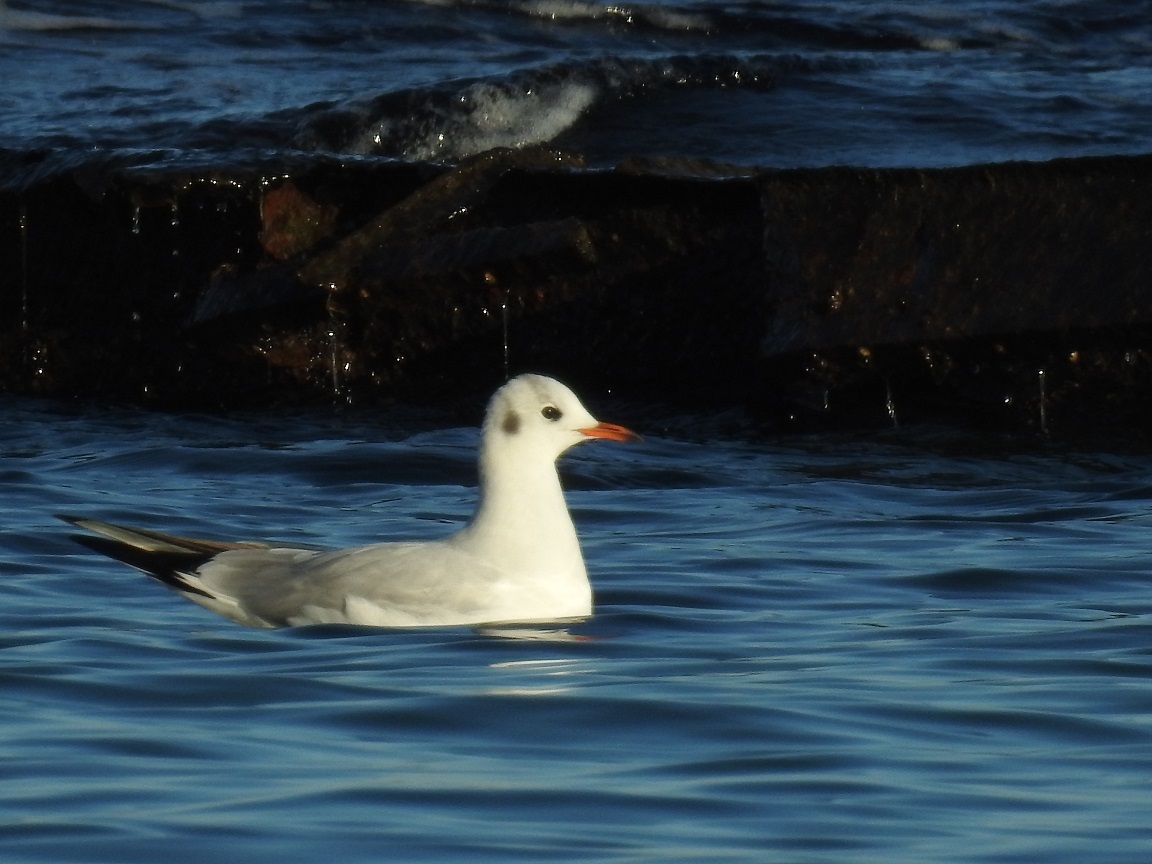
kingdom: Animalia
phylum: Chordata
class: Aves
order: Charadriiformes
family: Laridae
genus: Chroicocephalus
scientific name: Chroicocephalus ridibundus
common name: Black-headed gull
